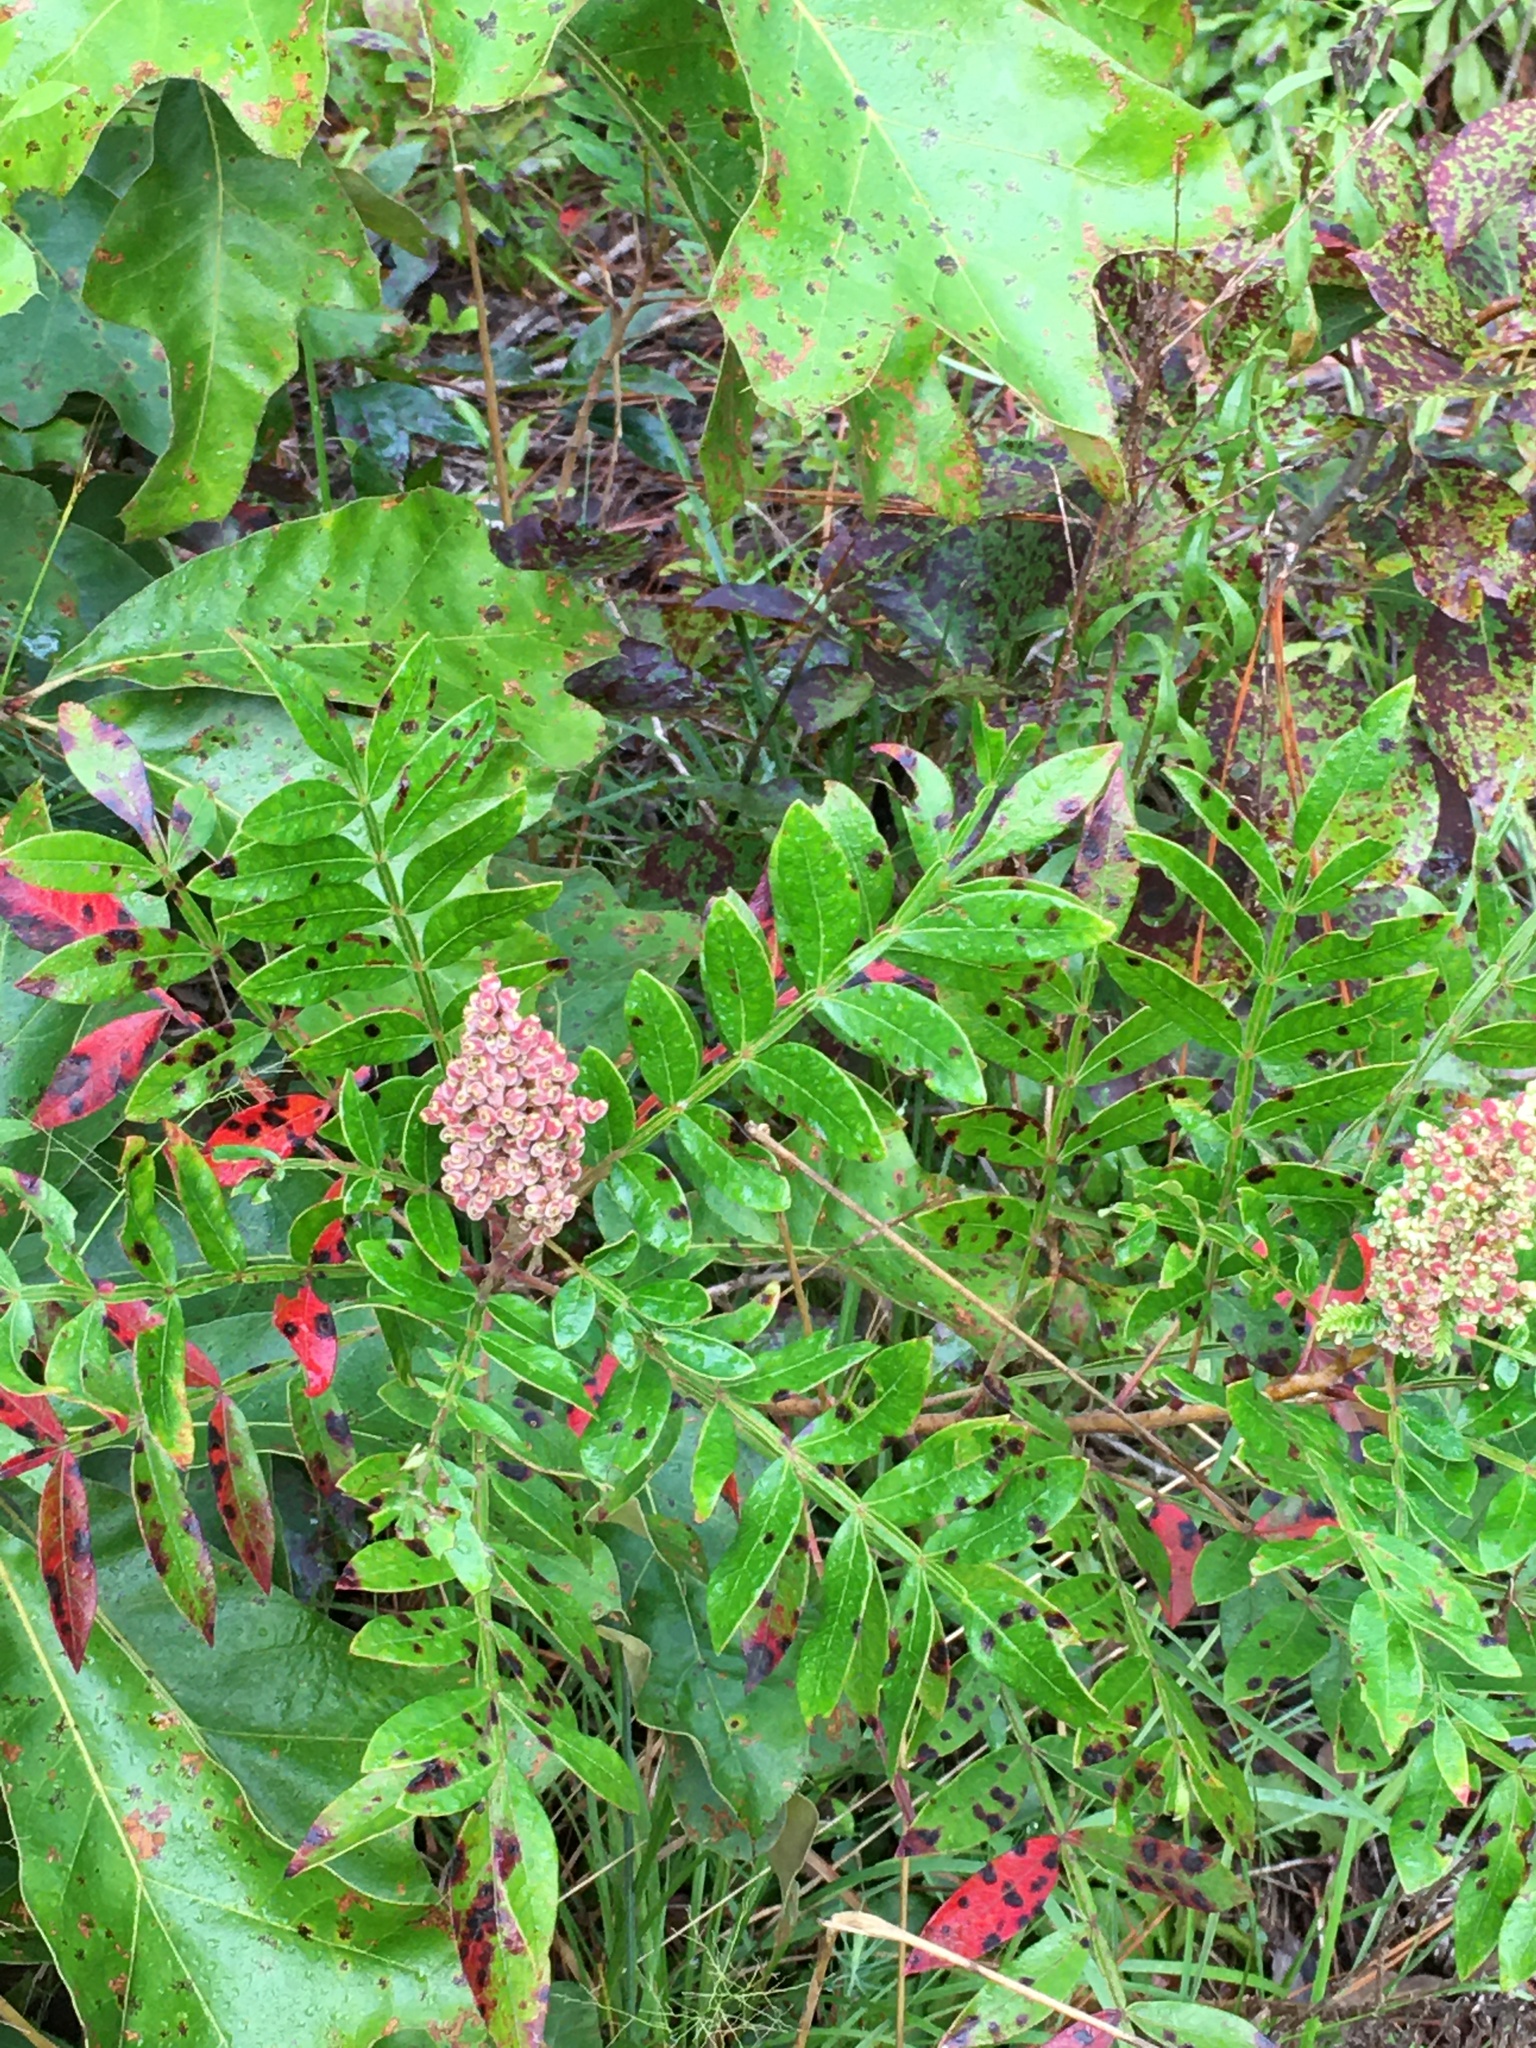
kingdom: Plantae
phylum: Tracheophyta
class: Magnoliopsida
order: Sapindales
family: Anacardiaceae
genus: Rhus
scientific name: Rhus copallina
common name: Shining sumac
